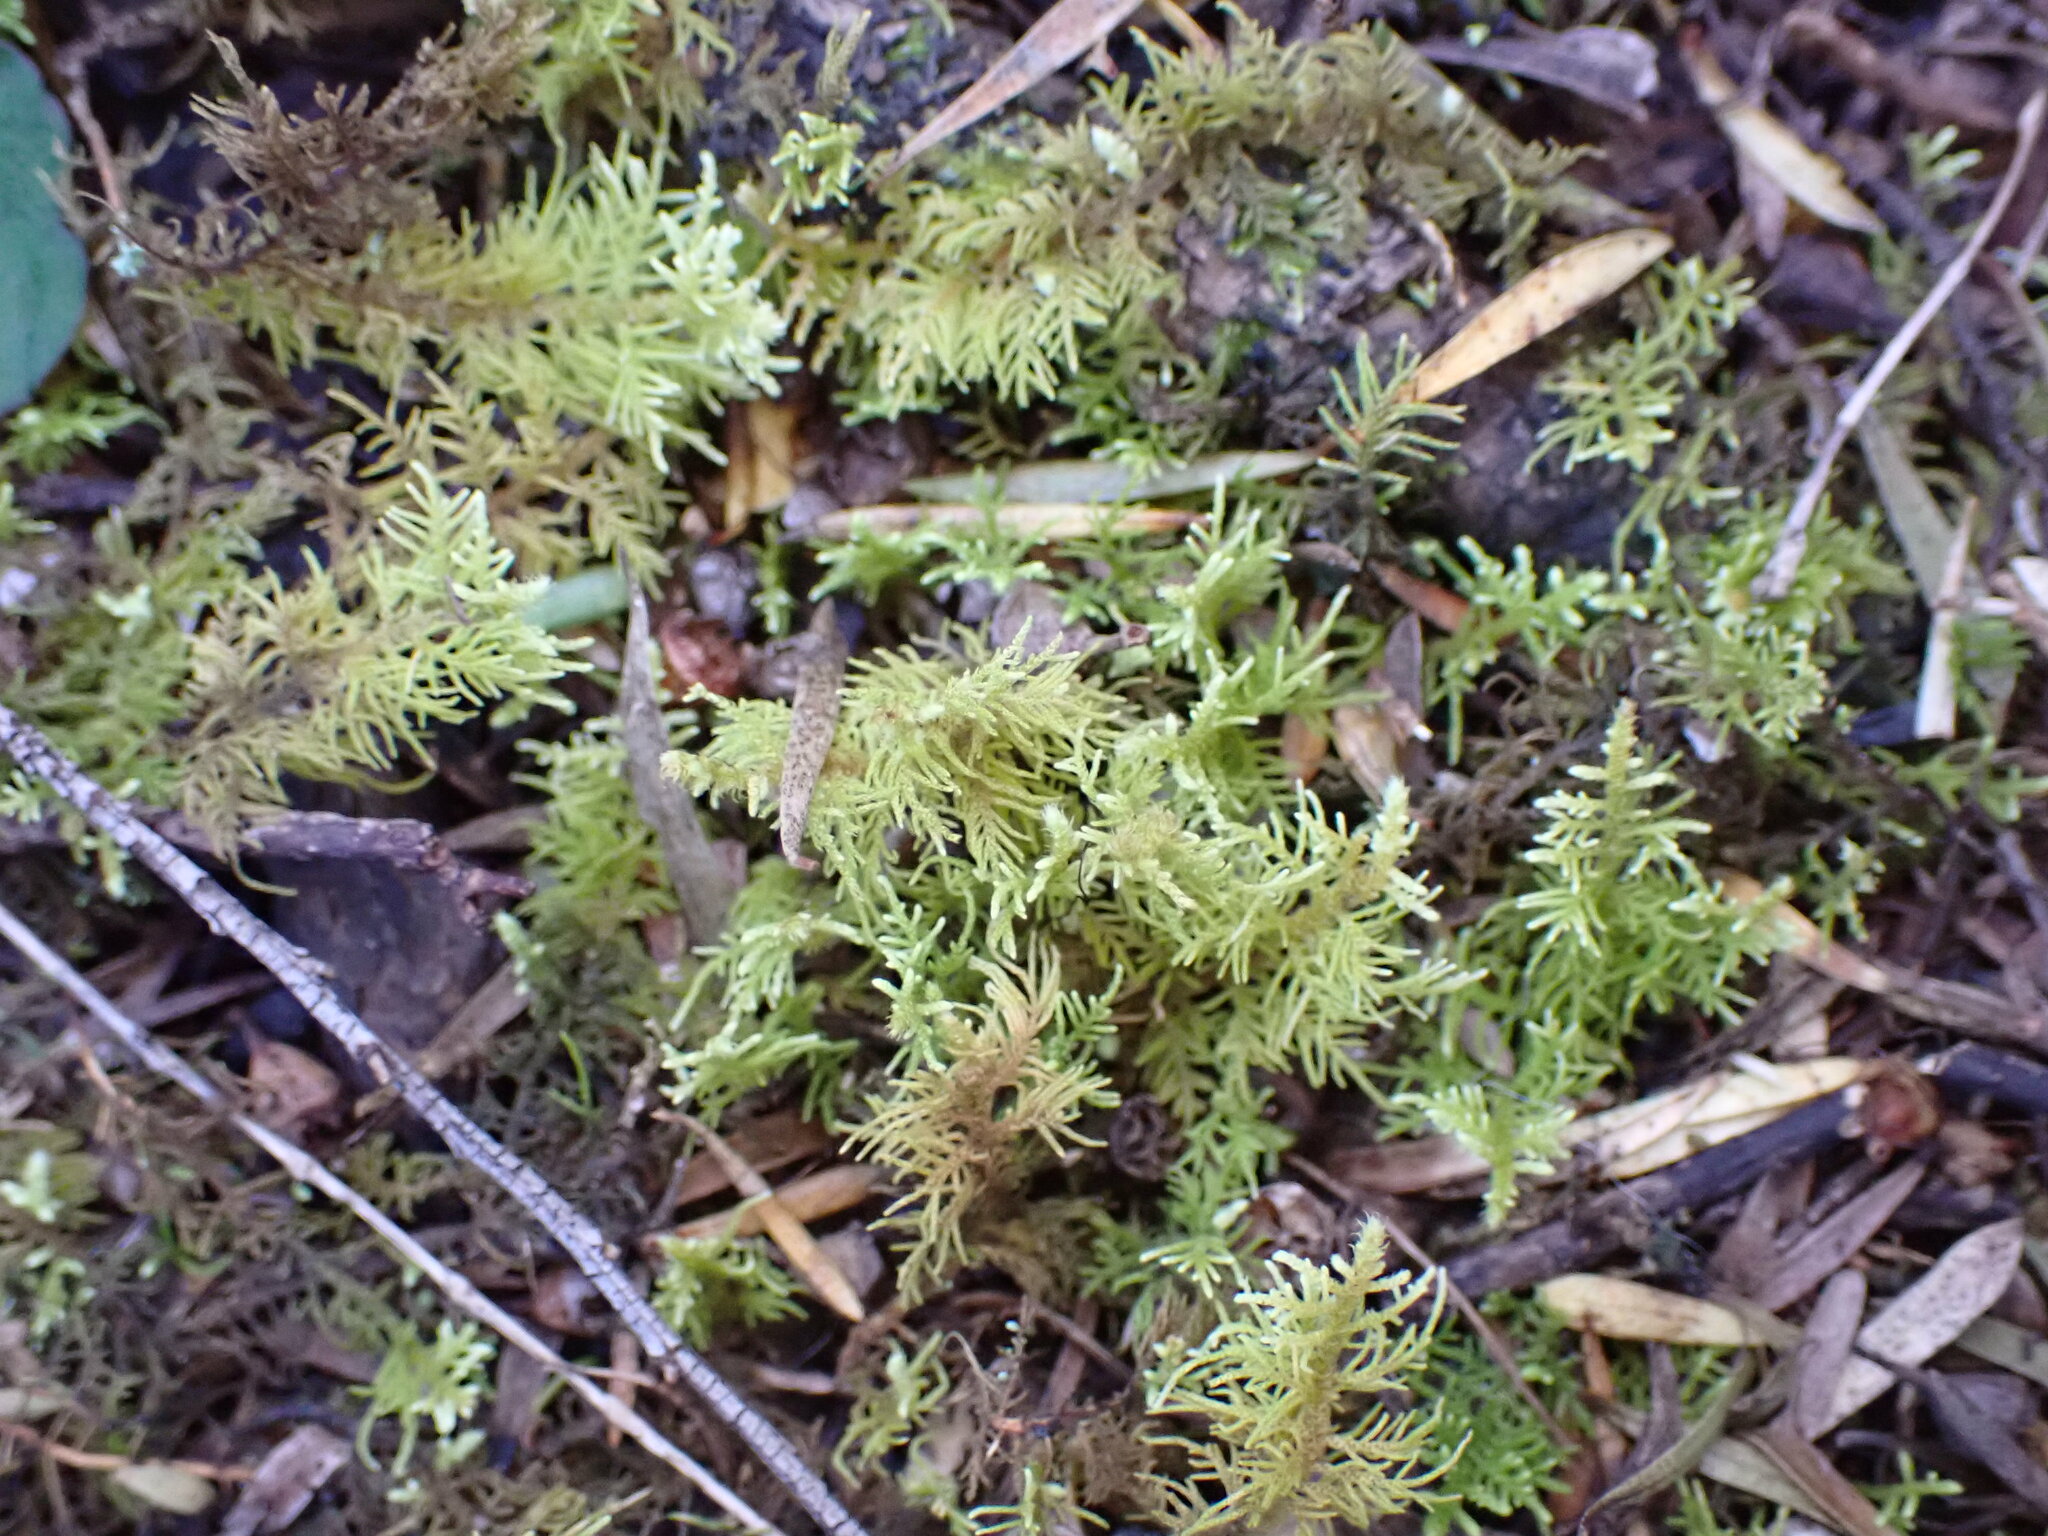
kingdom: Plantae
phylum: Bryophyta
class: Bryopsida
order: Hypnales
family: Thuidiaceae
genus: Thuidiopsis
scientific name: Thuidiopsis furfurosa
